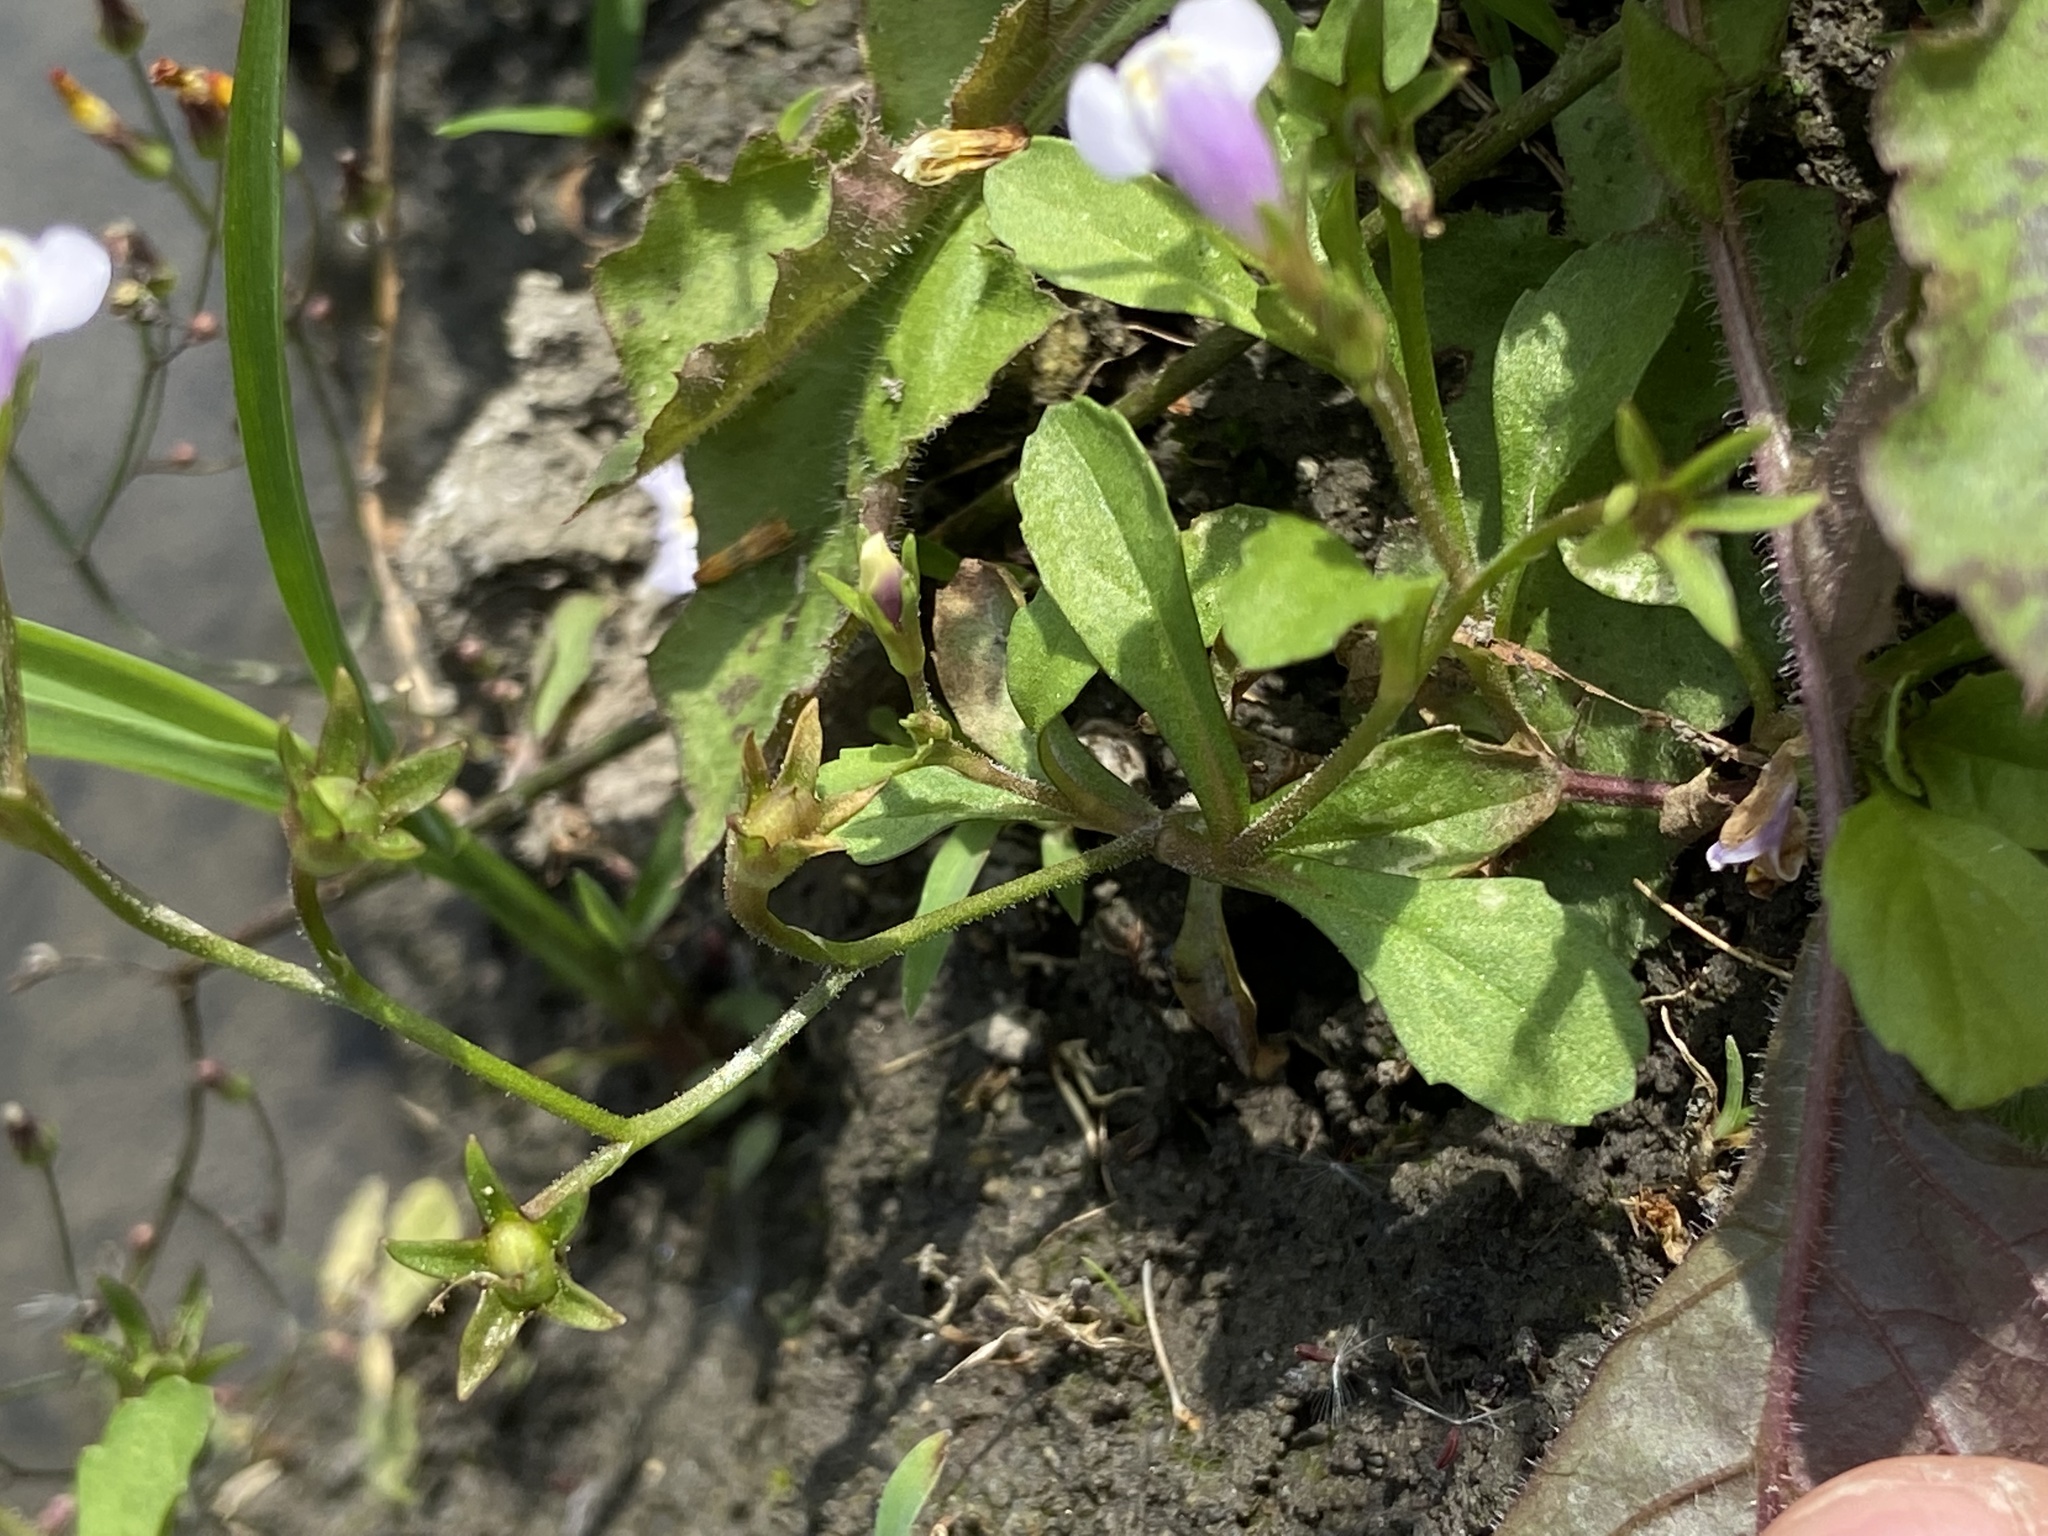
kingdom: Plantae
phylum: Tracheophyta
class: Magnoliopsida
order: Lamiales
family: Mazaceae
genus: Mazus
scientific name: Mazus pumilus
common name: Japanese mazus
